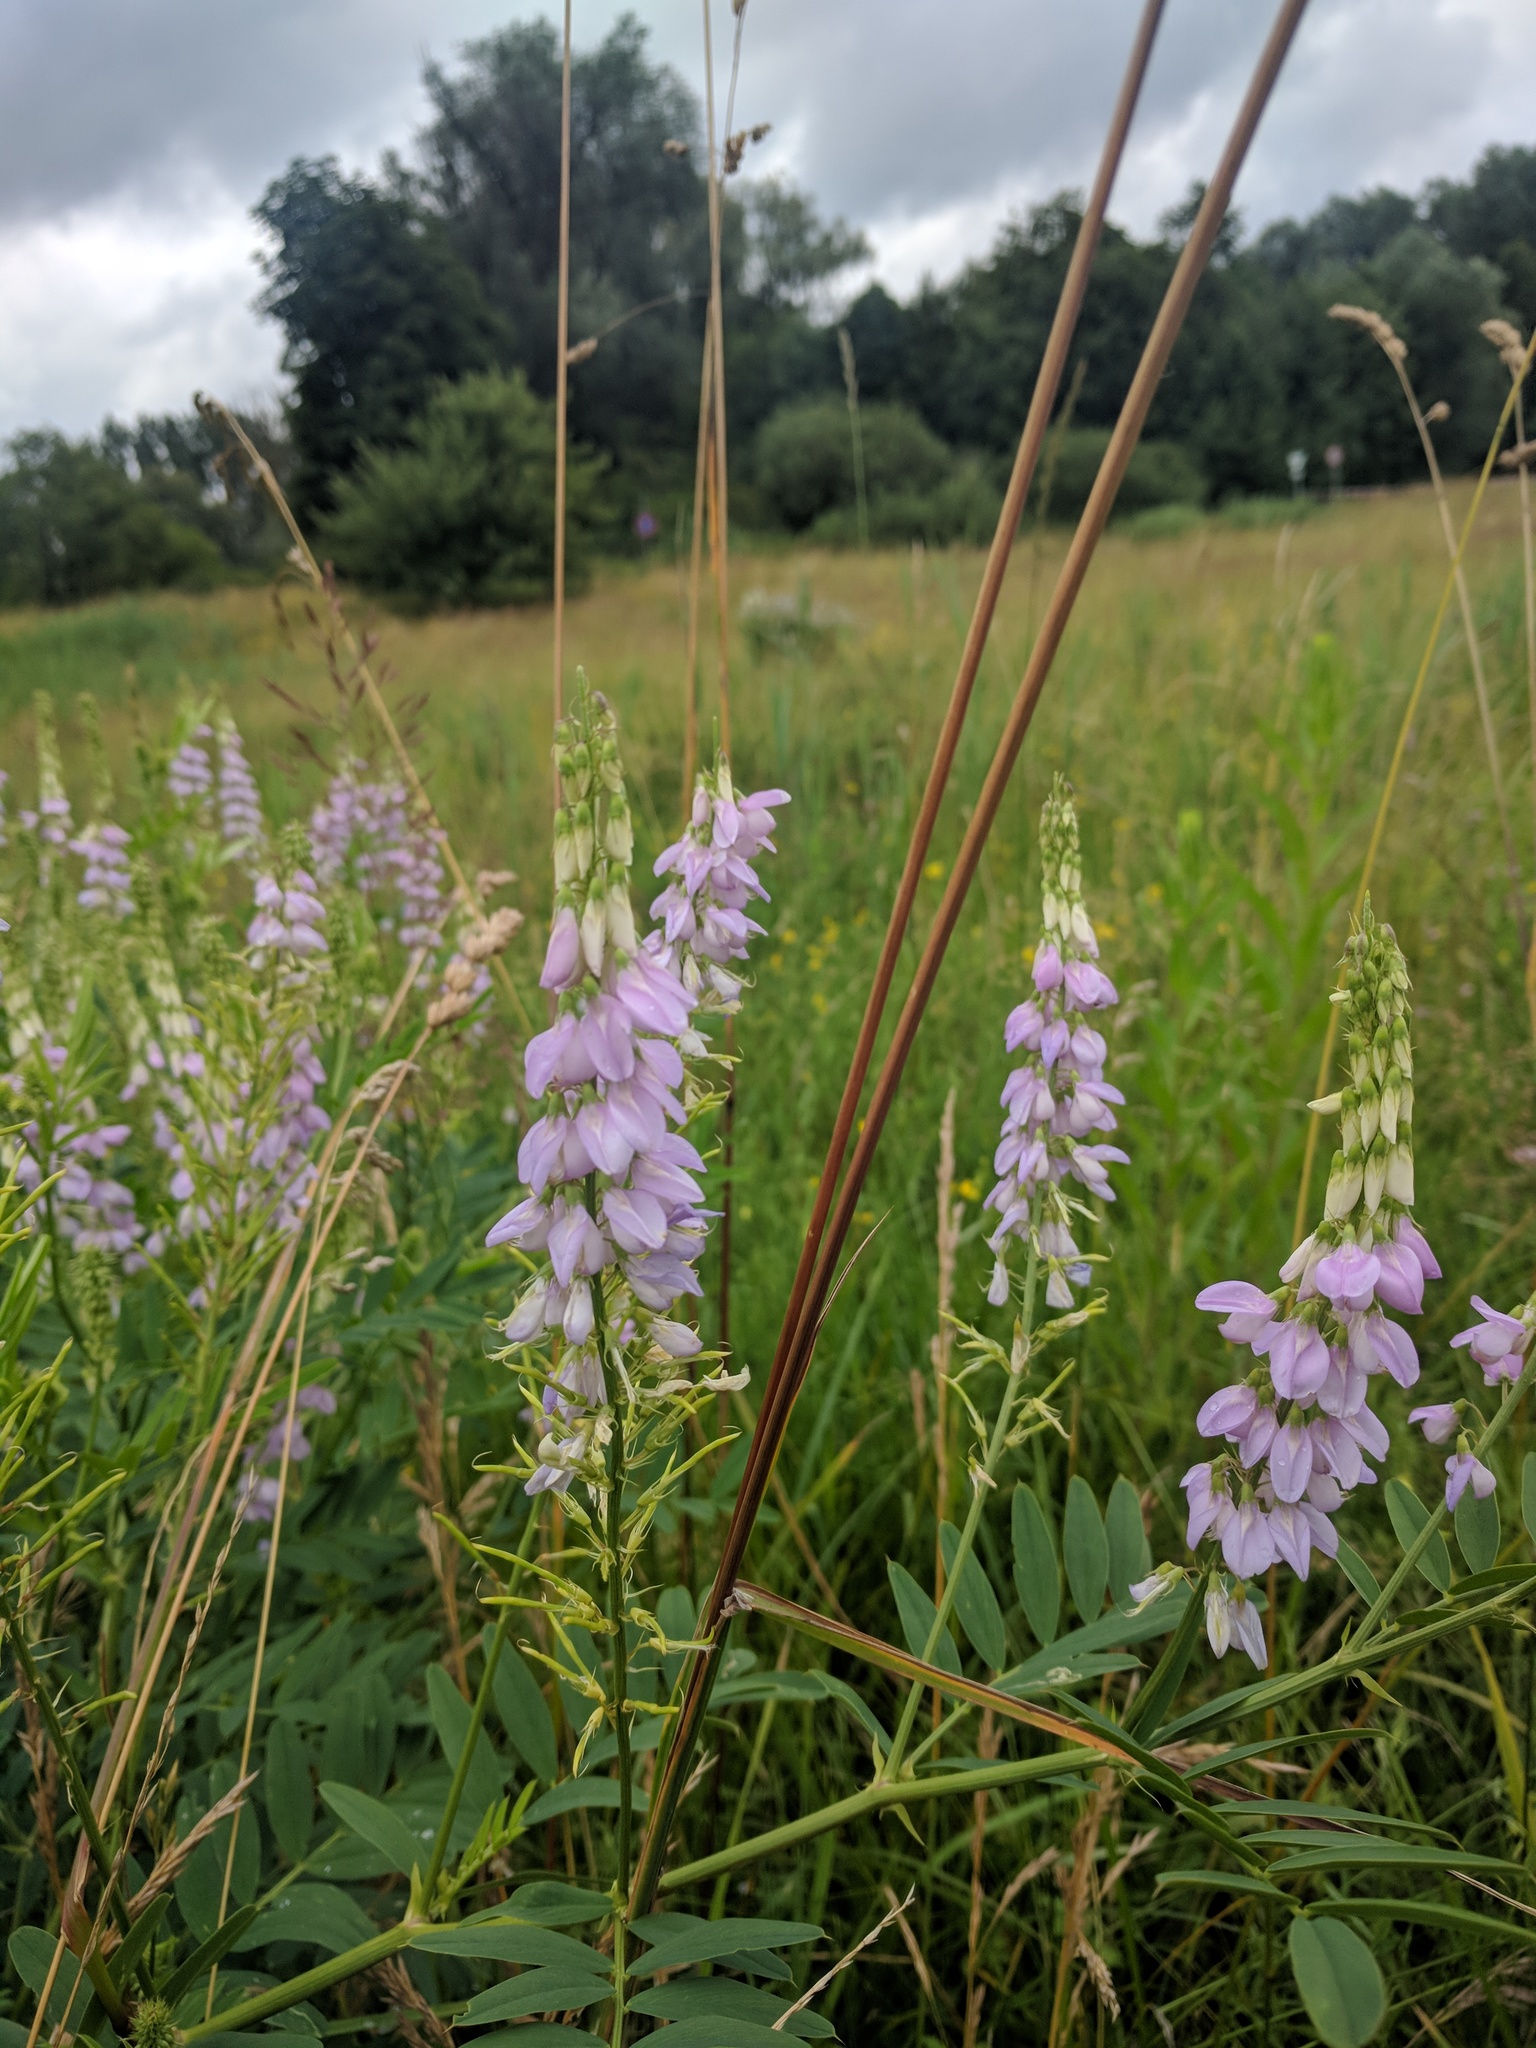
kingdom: Plantae
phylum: Tracheophyta
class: Magnoliopsida
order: Fabales
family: Fabaceae
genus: Galega
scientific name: Galega officinalis
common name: Goat's-rue
